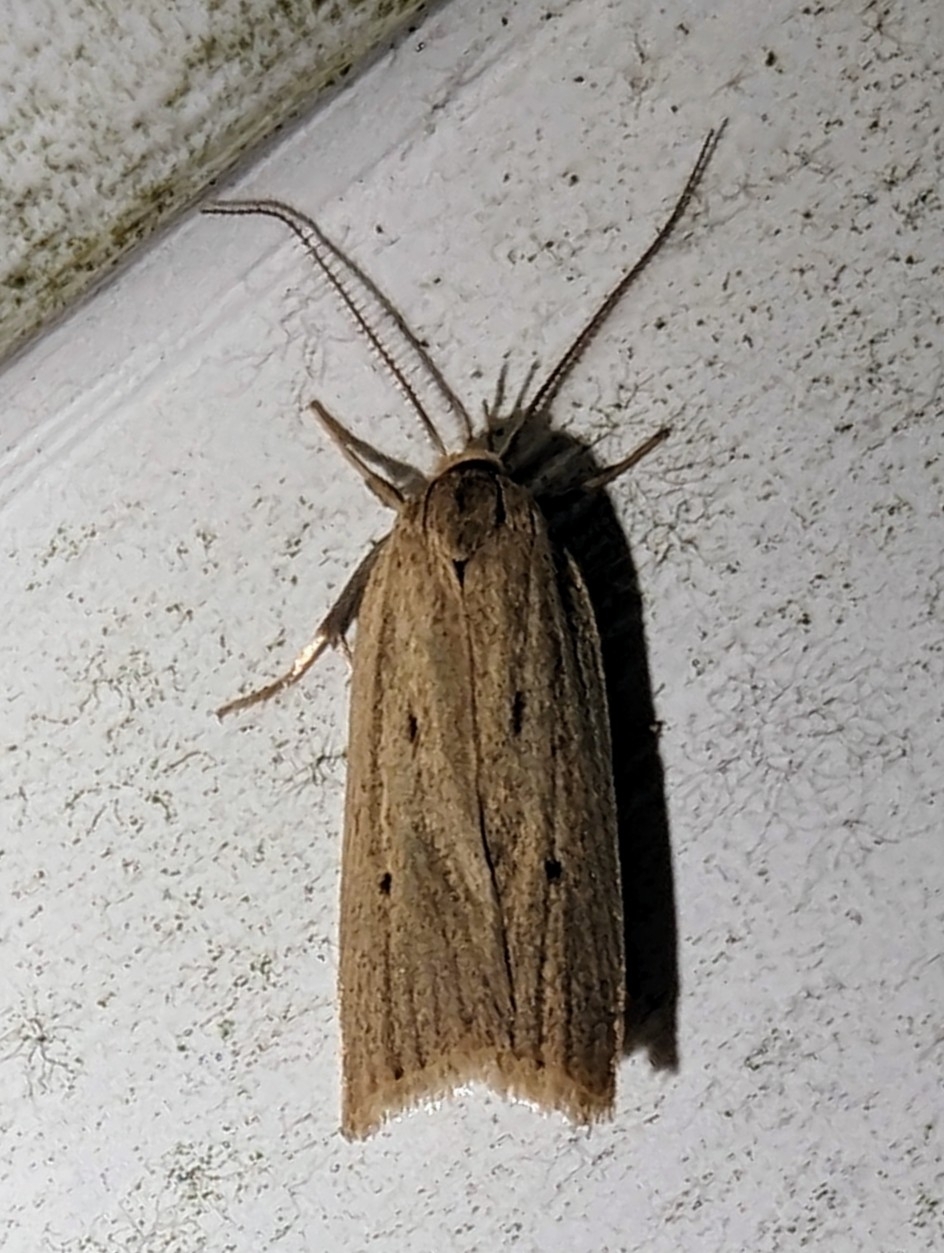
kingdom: Animalia
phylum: Arthropoda
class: Insecta
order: Lepidoptera
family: Depressariidae
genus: Gonioterma
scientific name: Gonioterma mistrella
